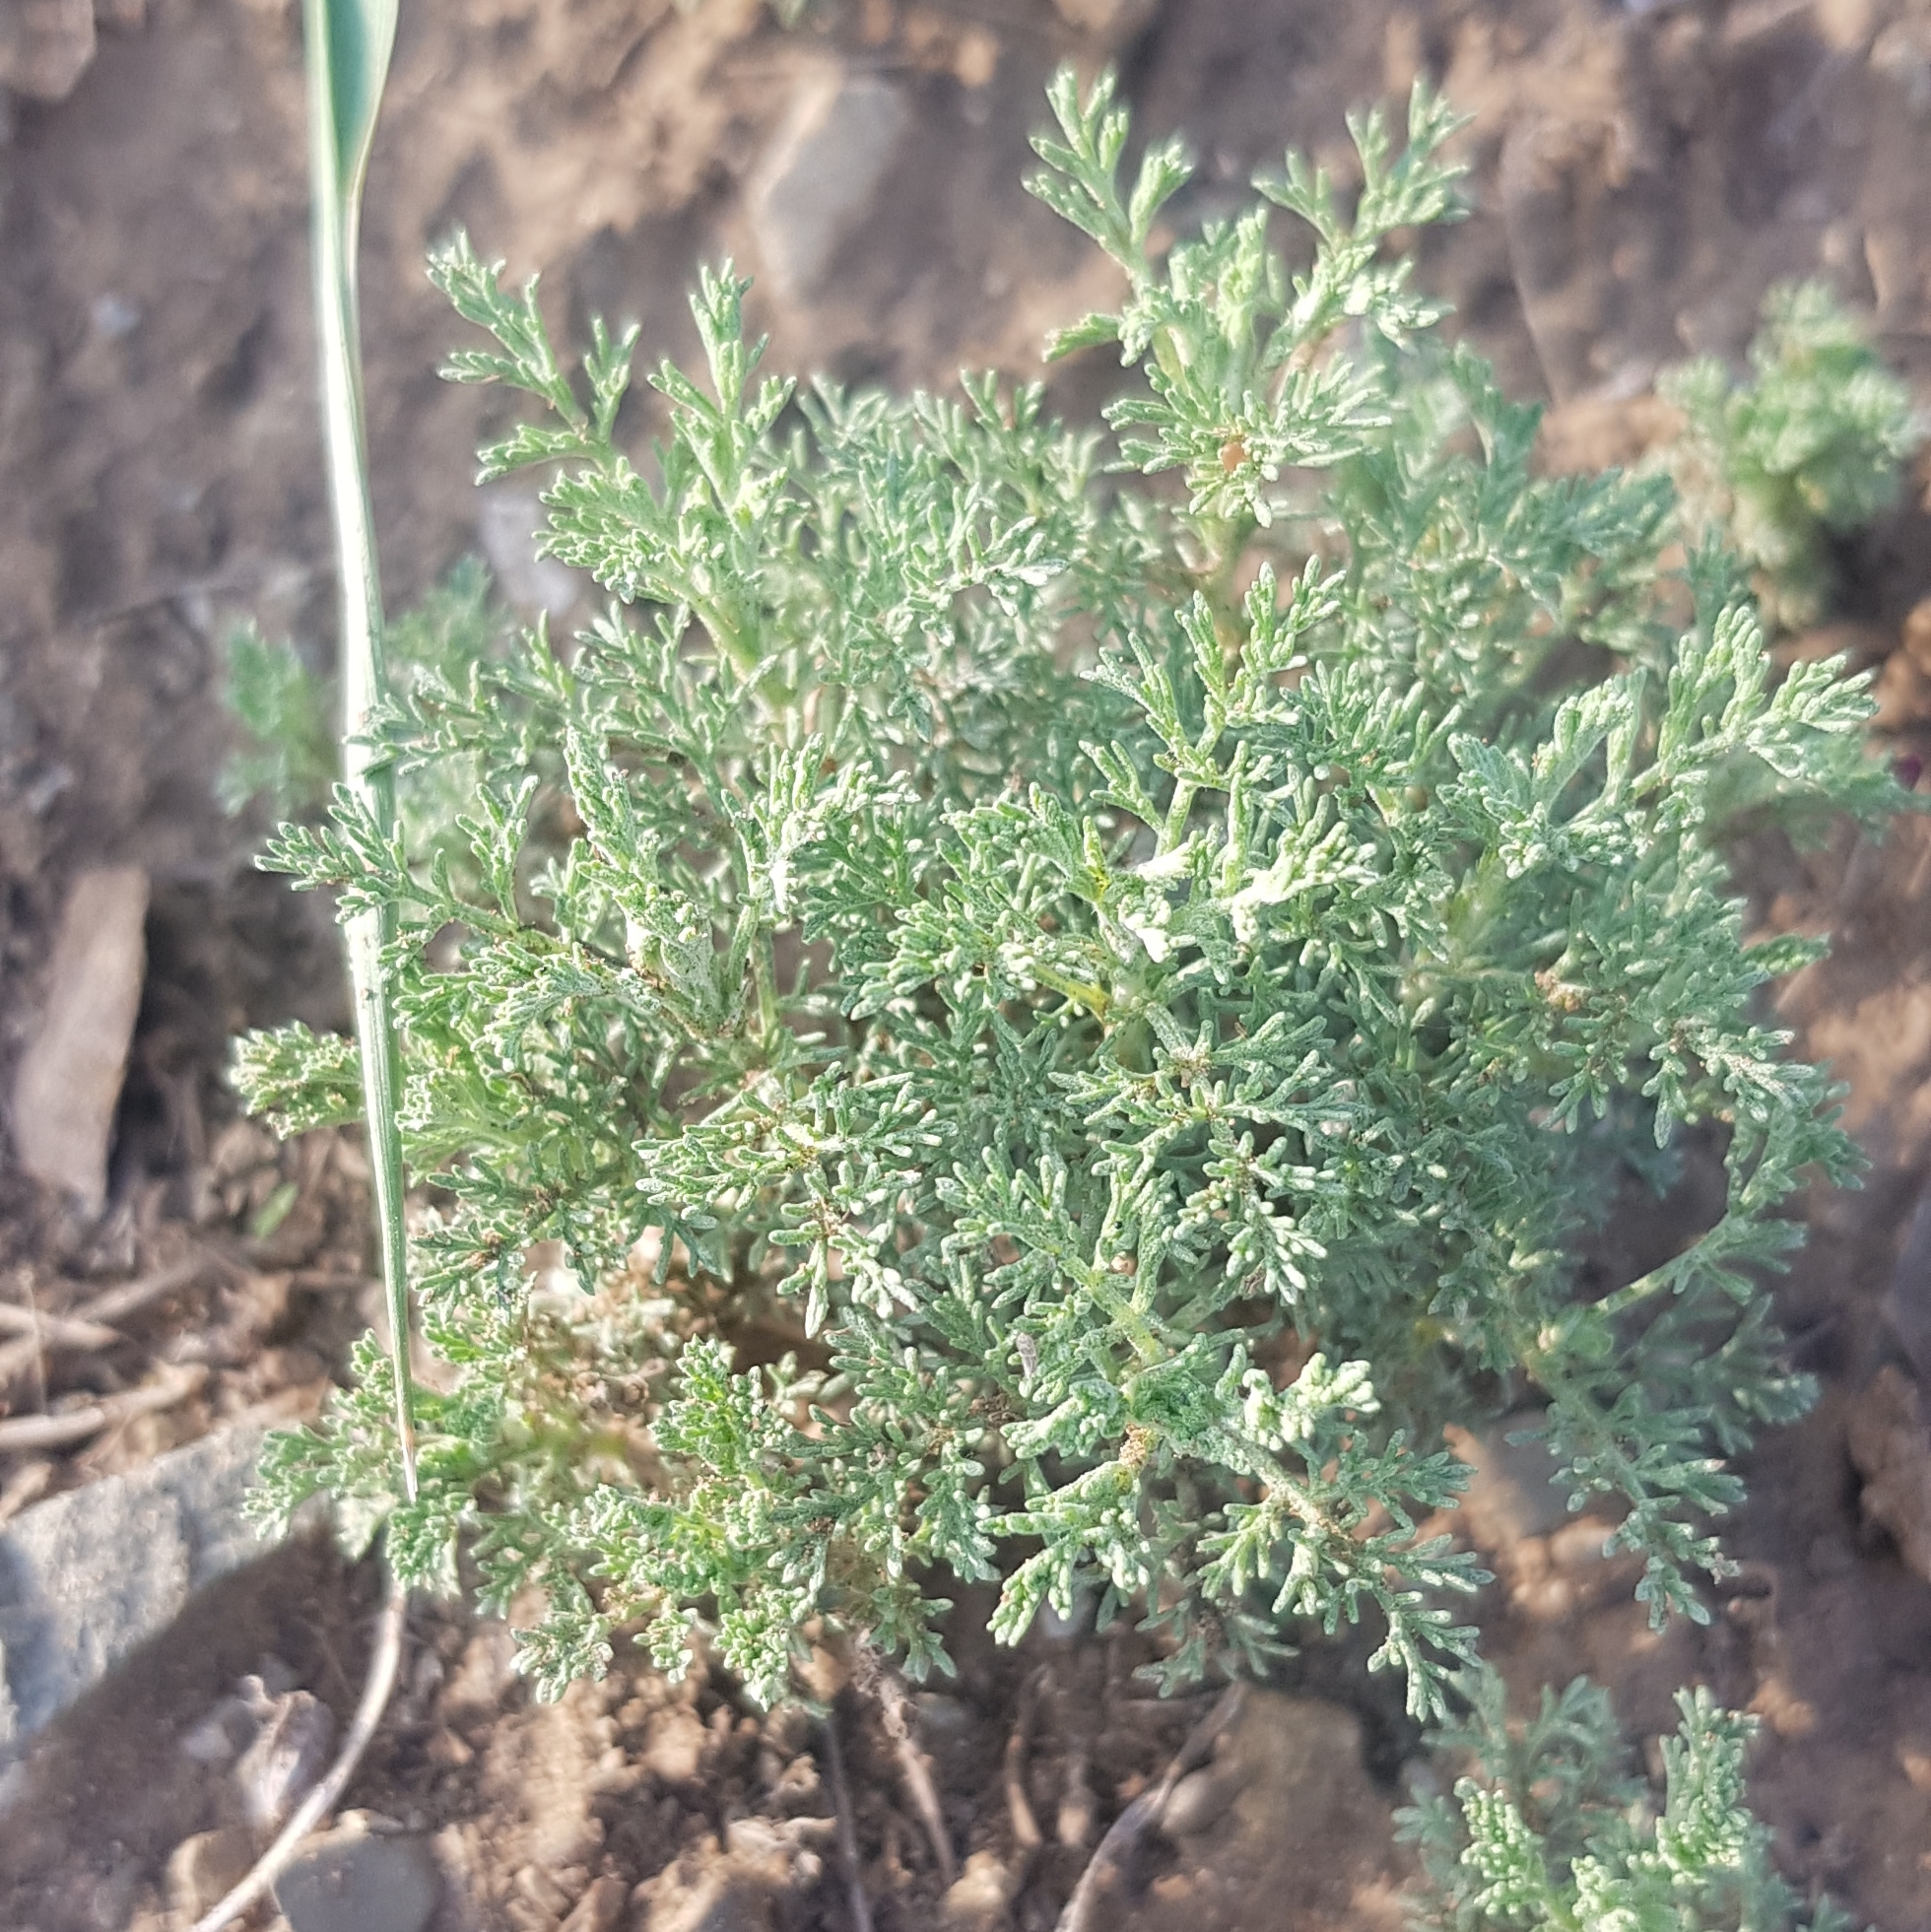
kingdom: Plantae
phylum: Tracheophyta
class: Magnoliopsida
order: Asterales
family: Asteraceae
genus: Artemisia
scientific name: Artemisia adamsii
